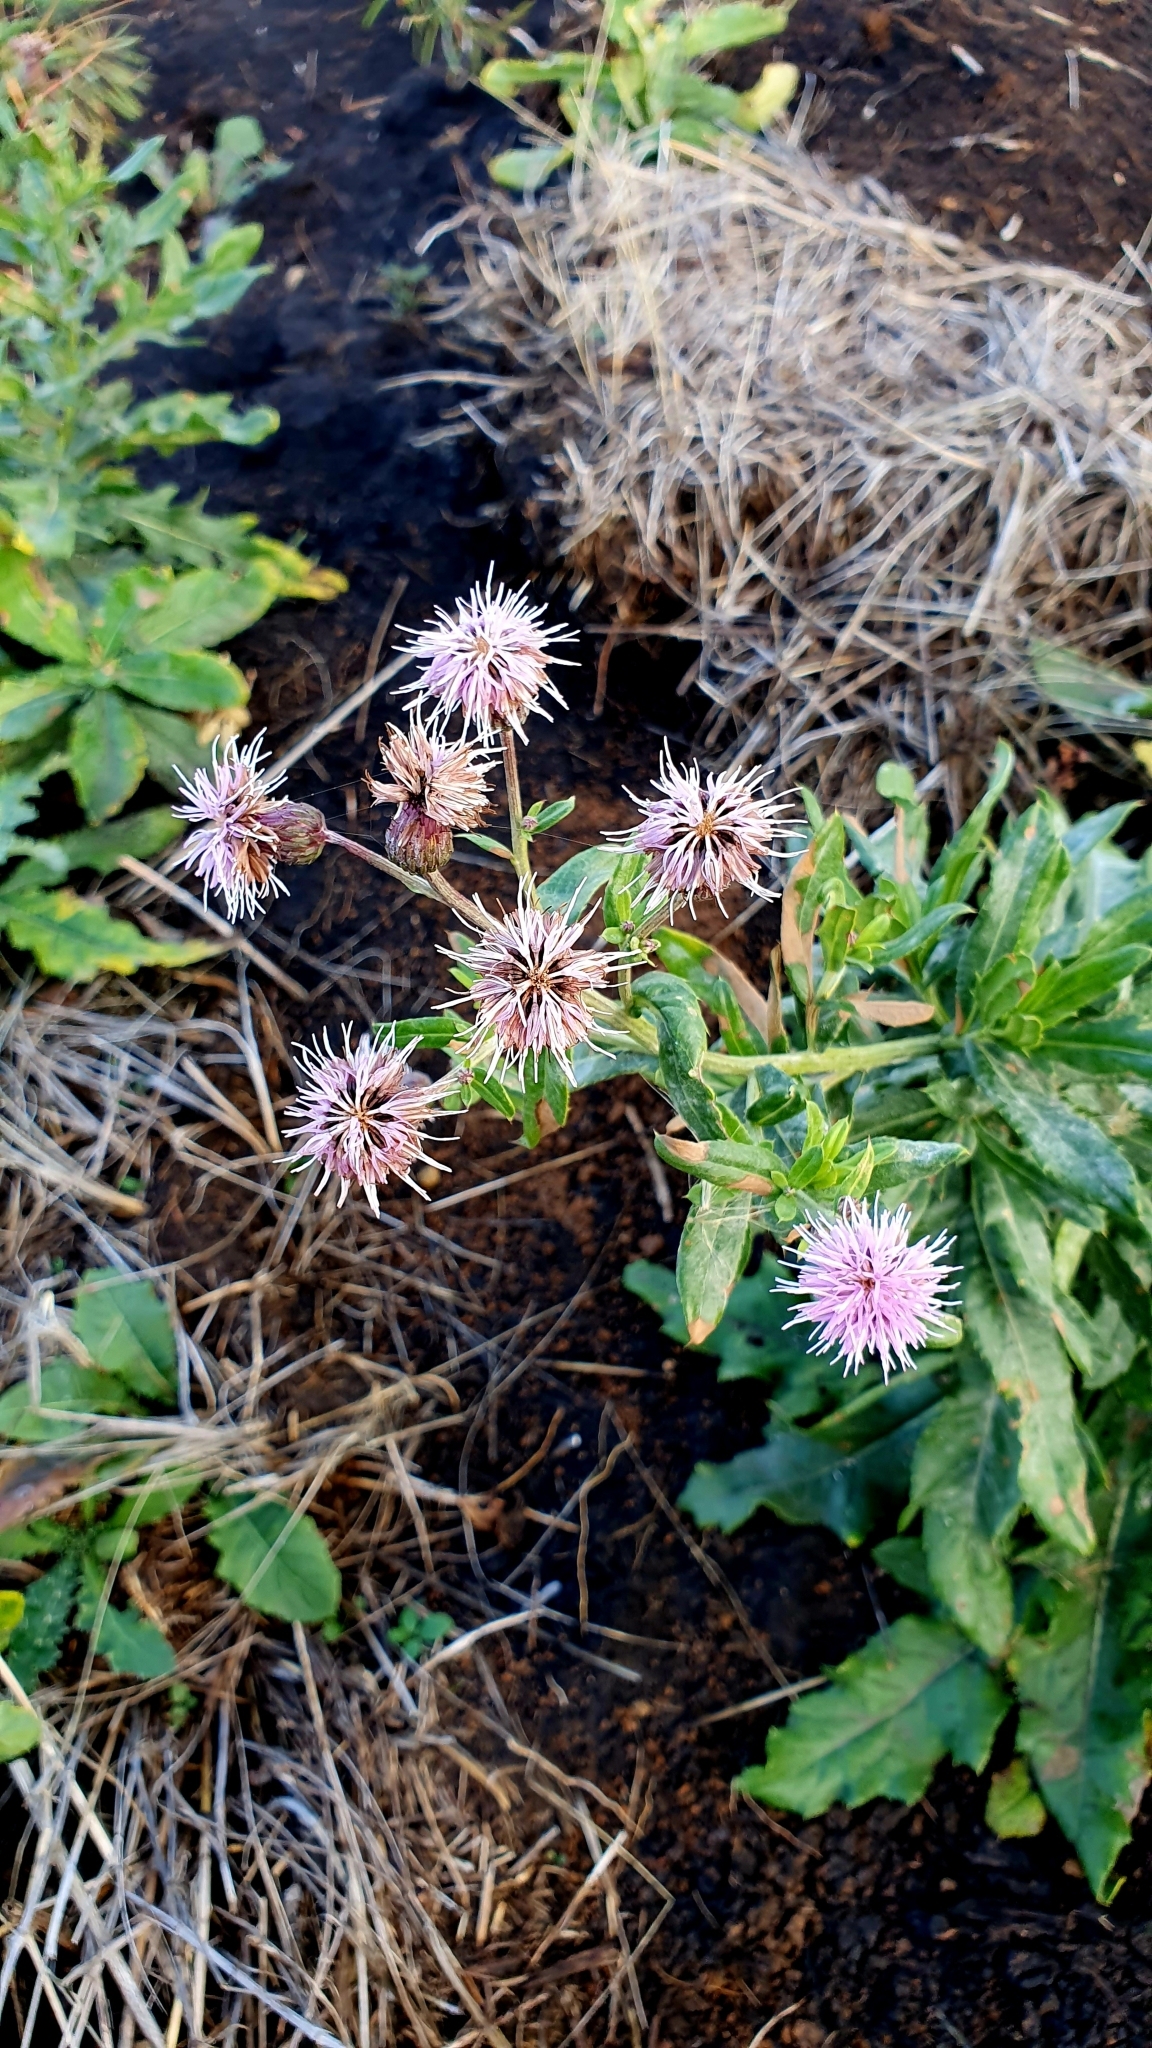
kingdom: Plantae
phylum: Tracheophyta
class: Magnoliopsida
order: Asterales
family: Asteraceae
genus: Cirsium
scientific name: Cirsium arvense
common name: Creeping thistle
